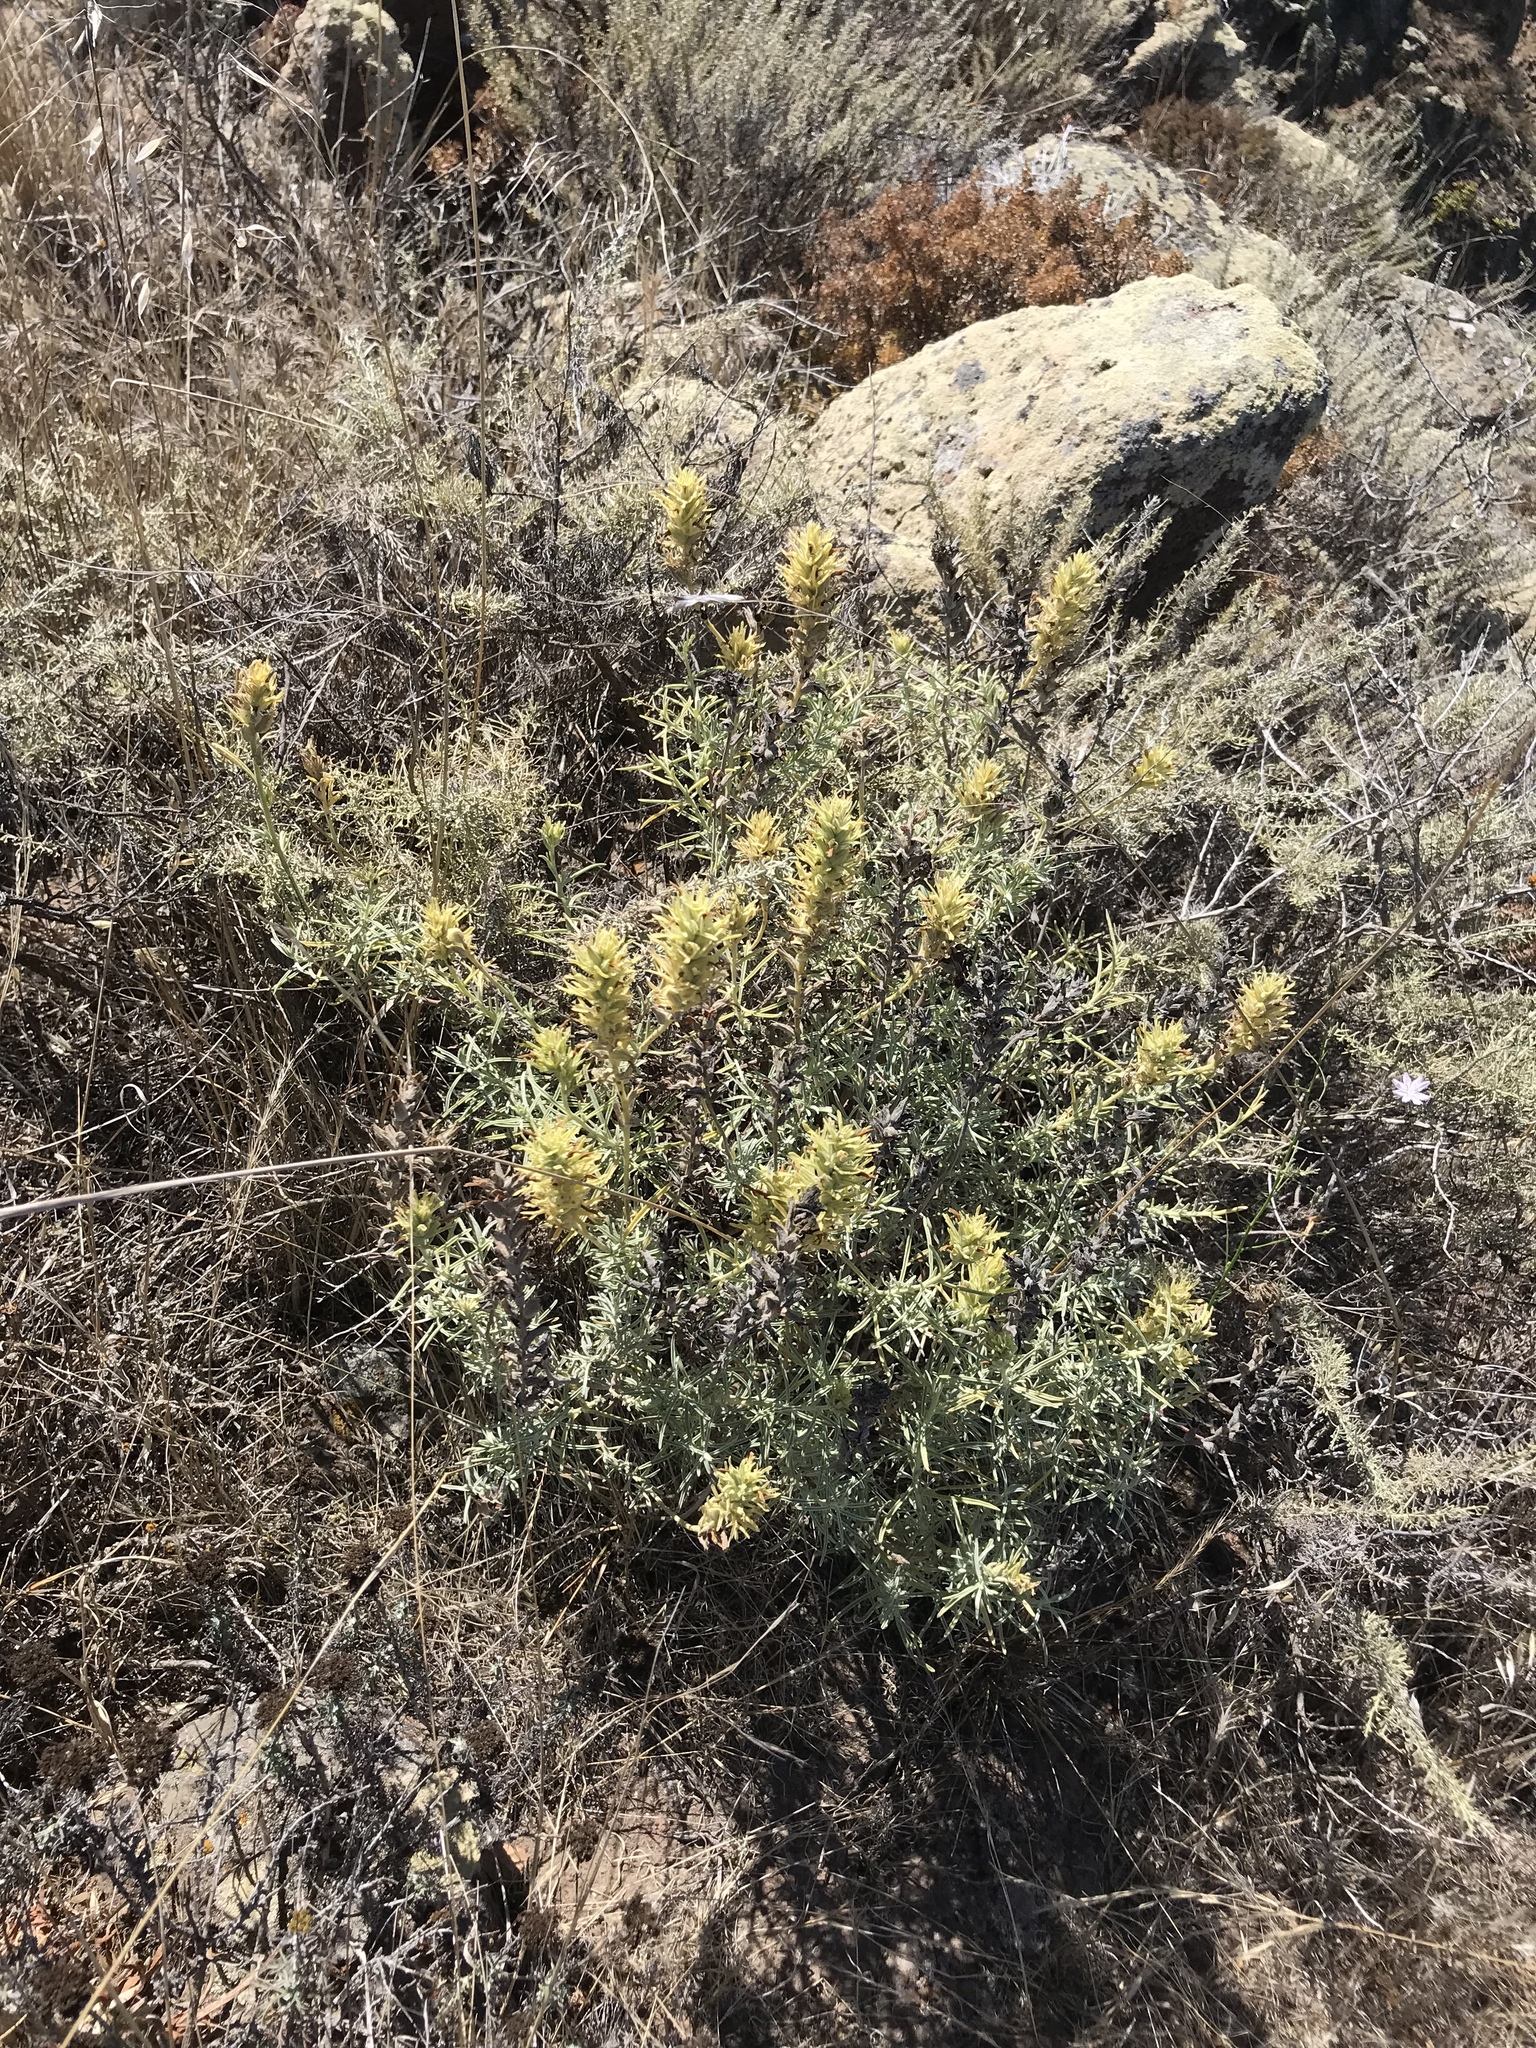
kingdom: Plantae
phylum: Tracheophyta
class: Magnoliopsida
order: Lamiales
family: Orobanchaceae
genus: Castilleja
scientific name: Castilleja grisea
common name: San clemente island indian paintbrush
